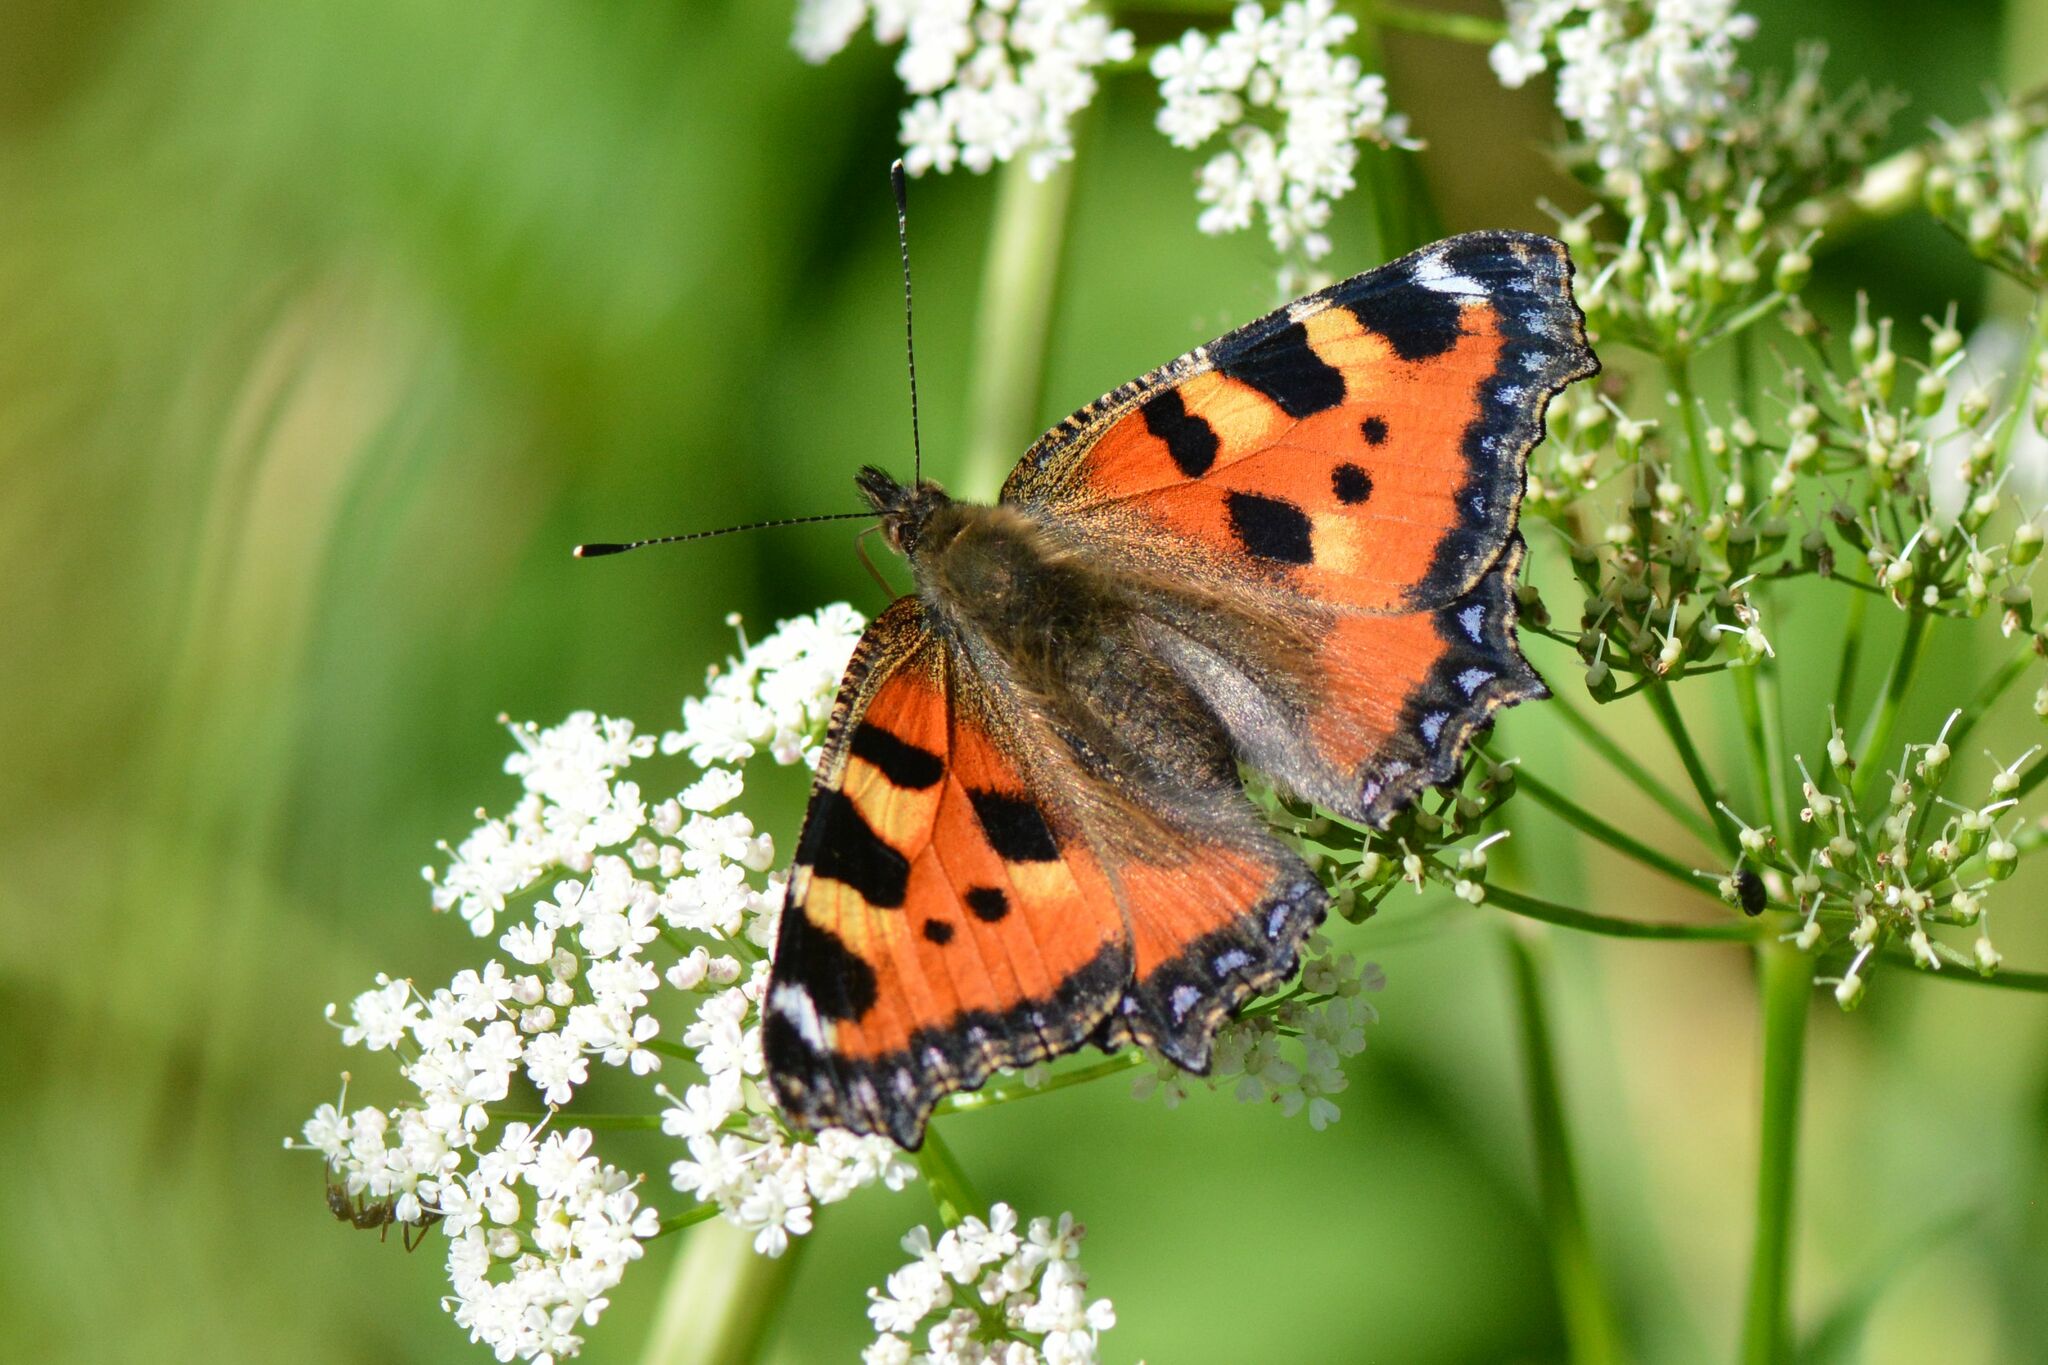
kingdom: Animalia
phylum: Arthropoda
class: Insecta
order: Lepidoptera
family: Nymphalidae
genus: Aglais
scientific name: Aglais urticae
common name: Small tortoiseshell
